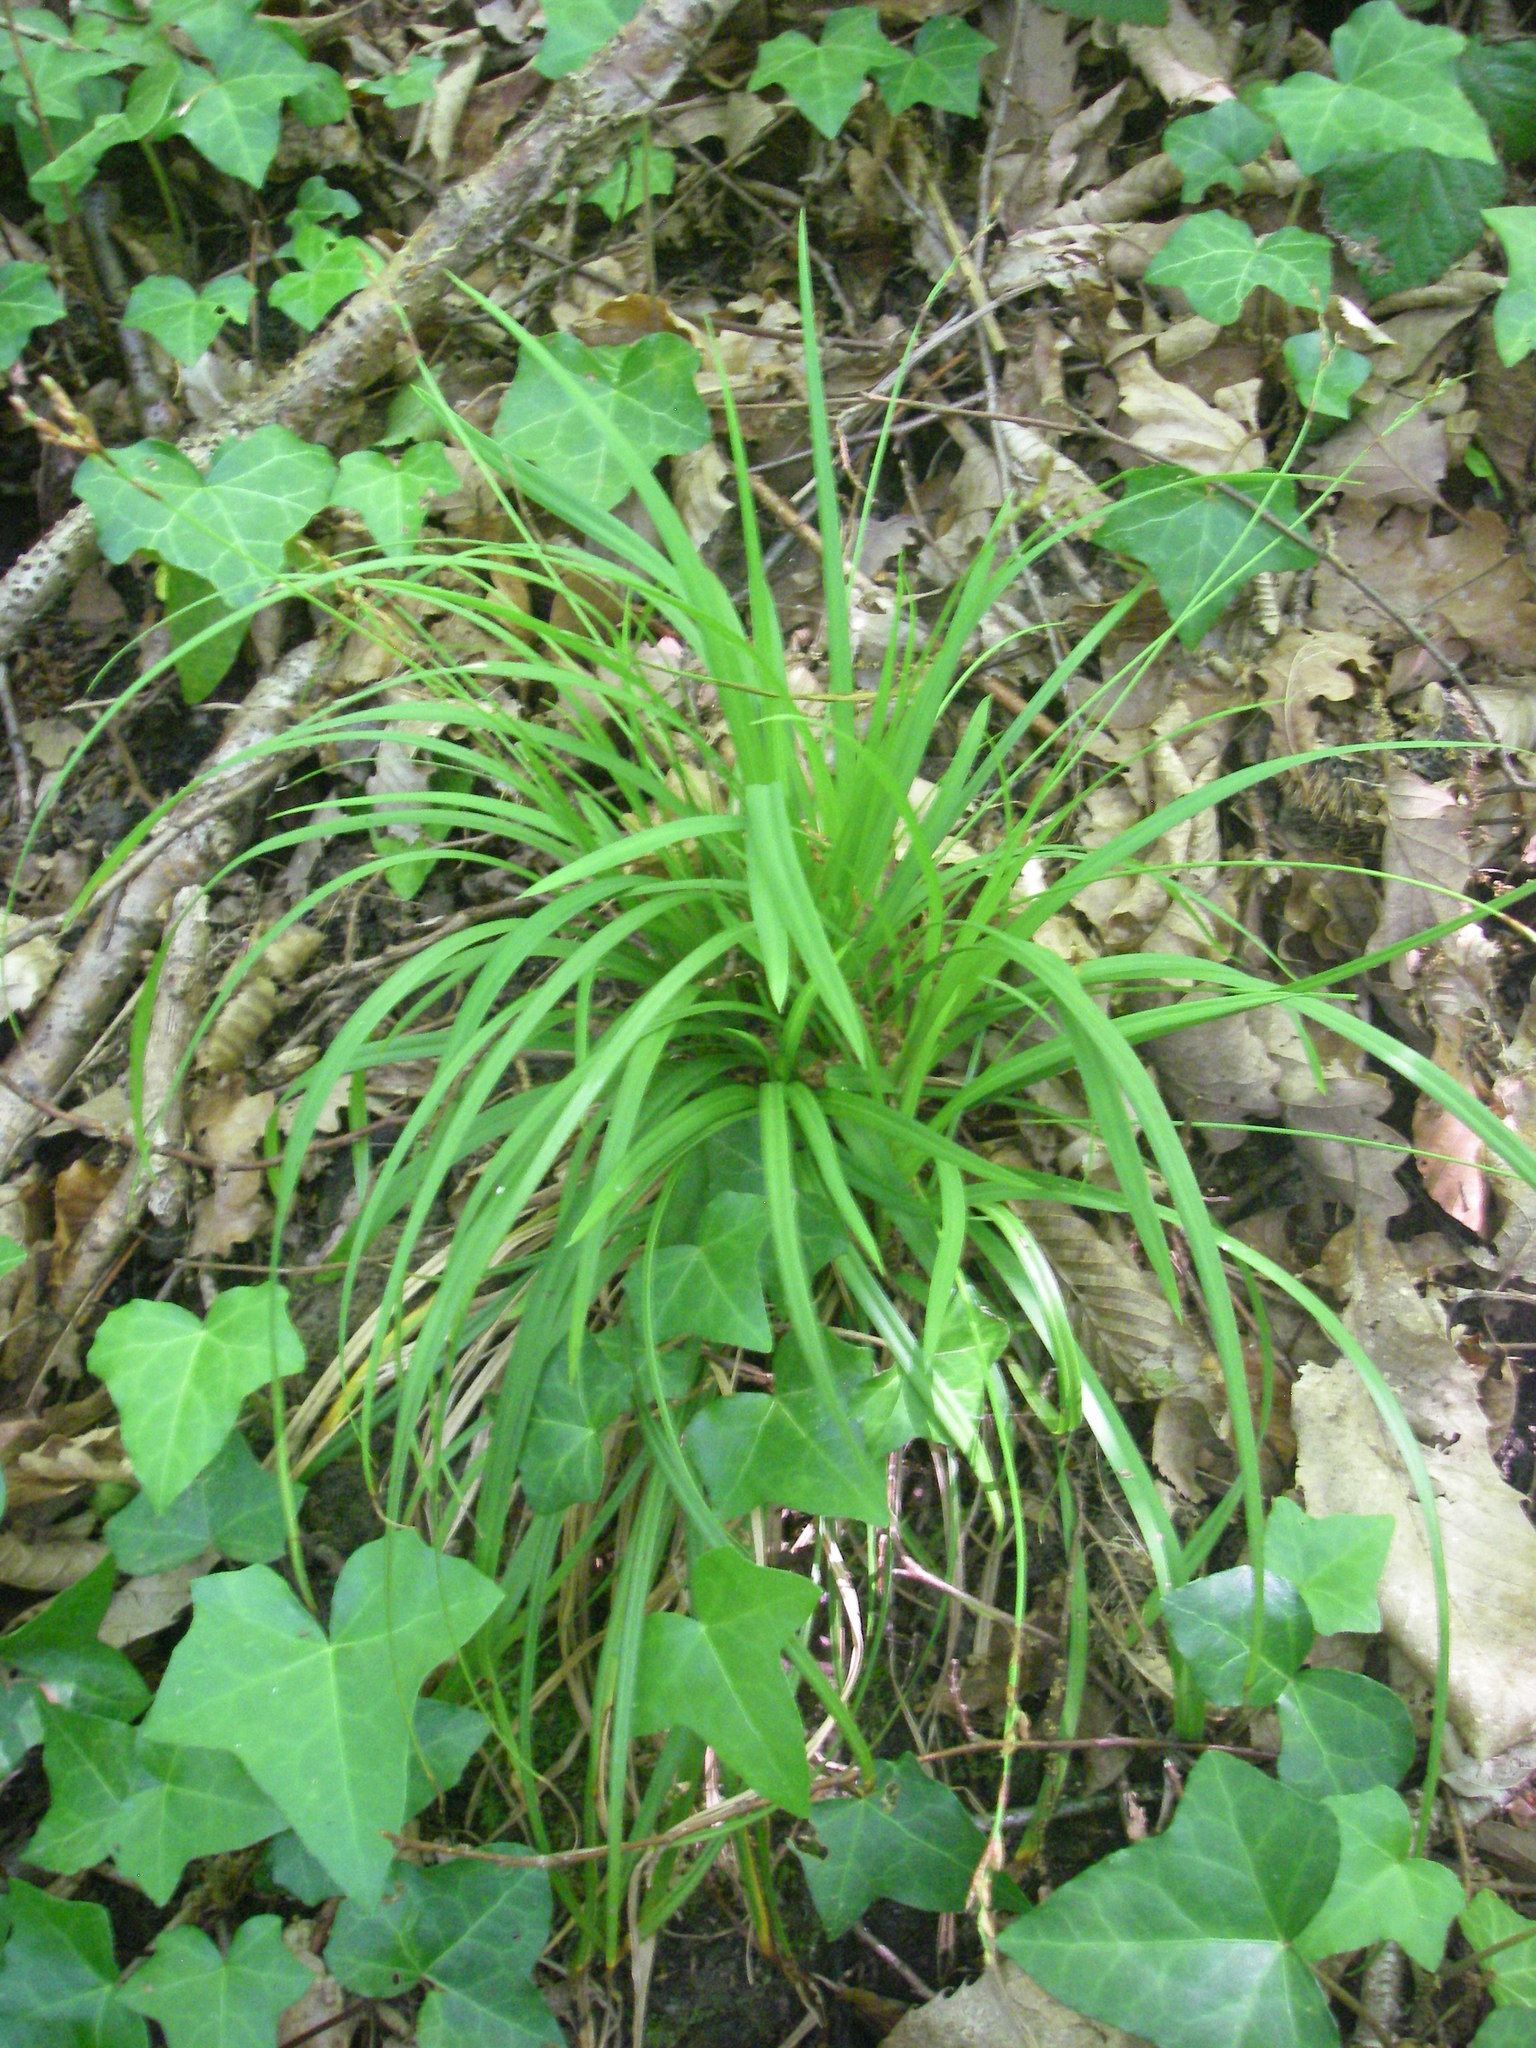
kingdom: Plantae
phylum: Tracheophyta
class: Liliopsida
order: Poales
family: Cyperaceae
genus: Carex
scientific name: Carex digitata
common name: Fingered sedge
